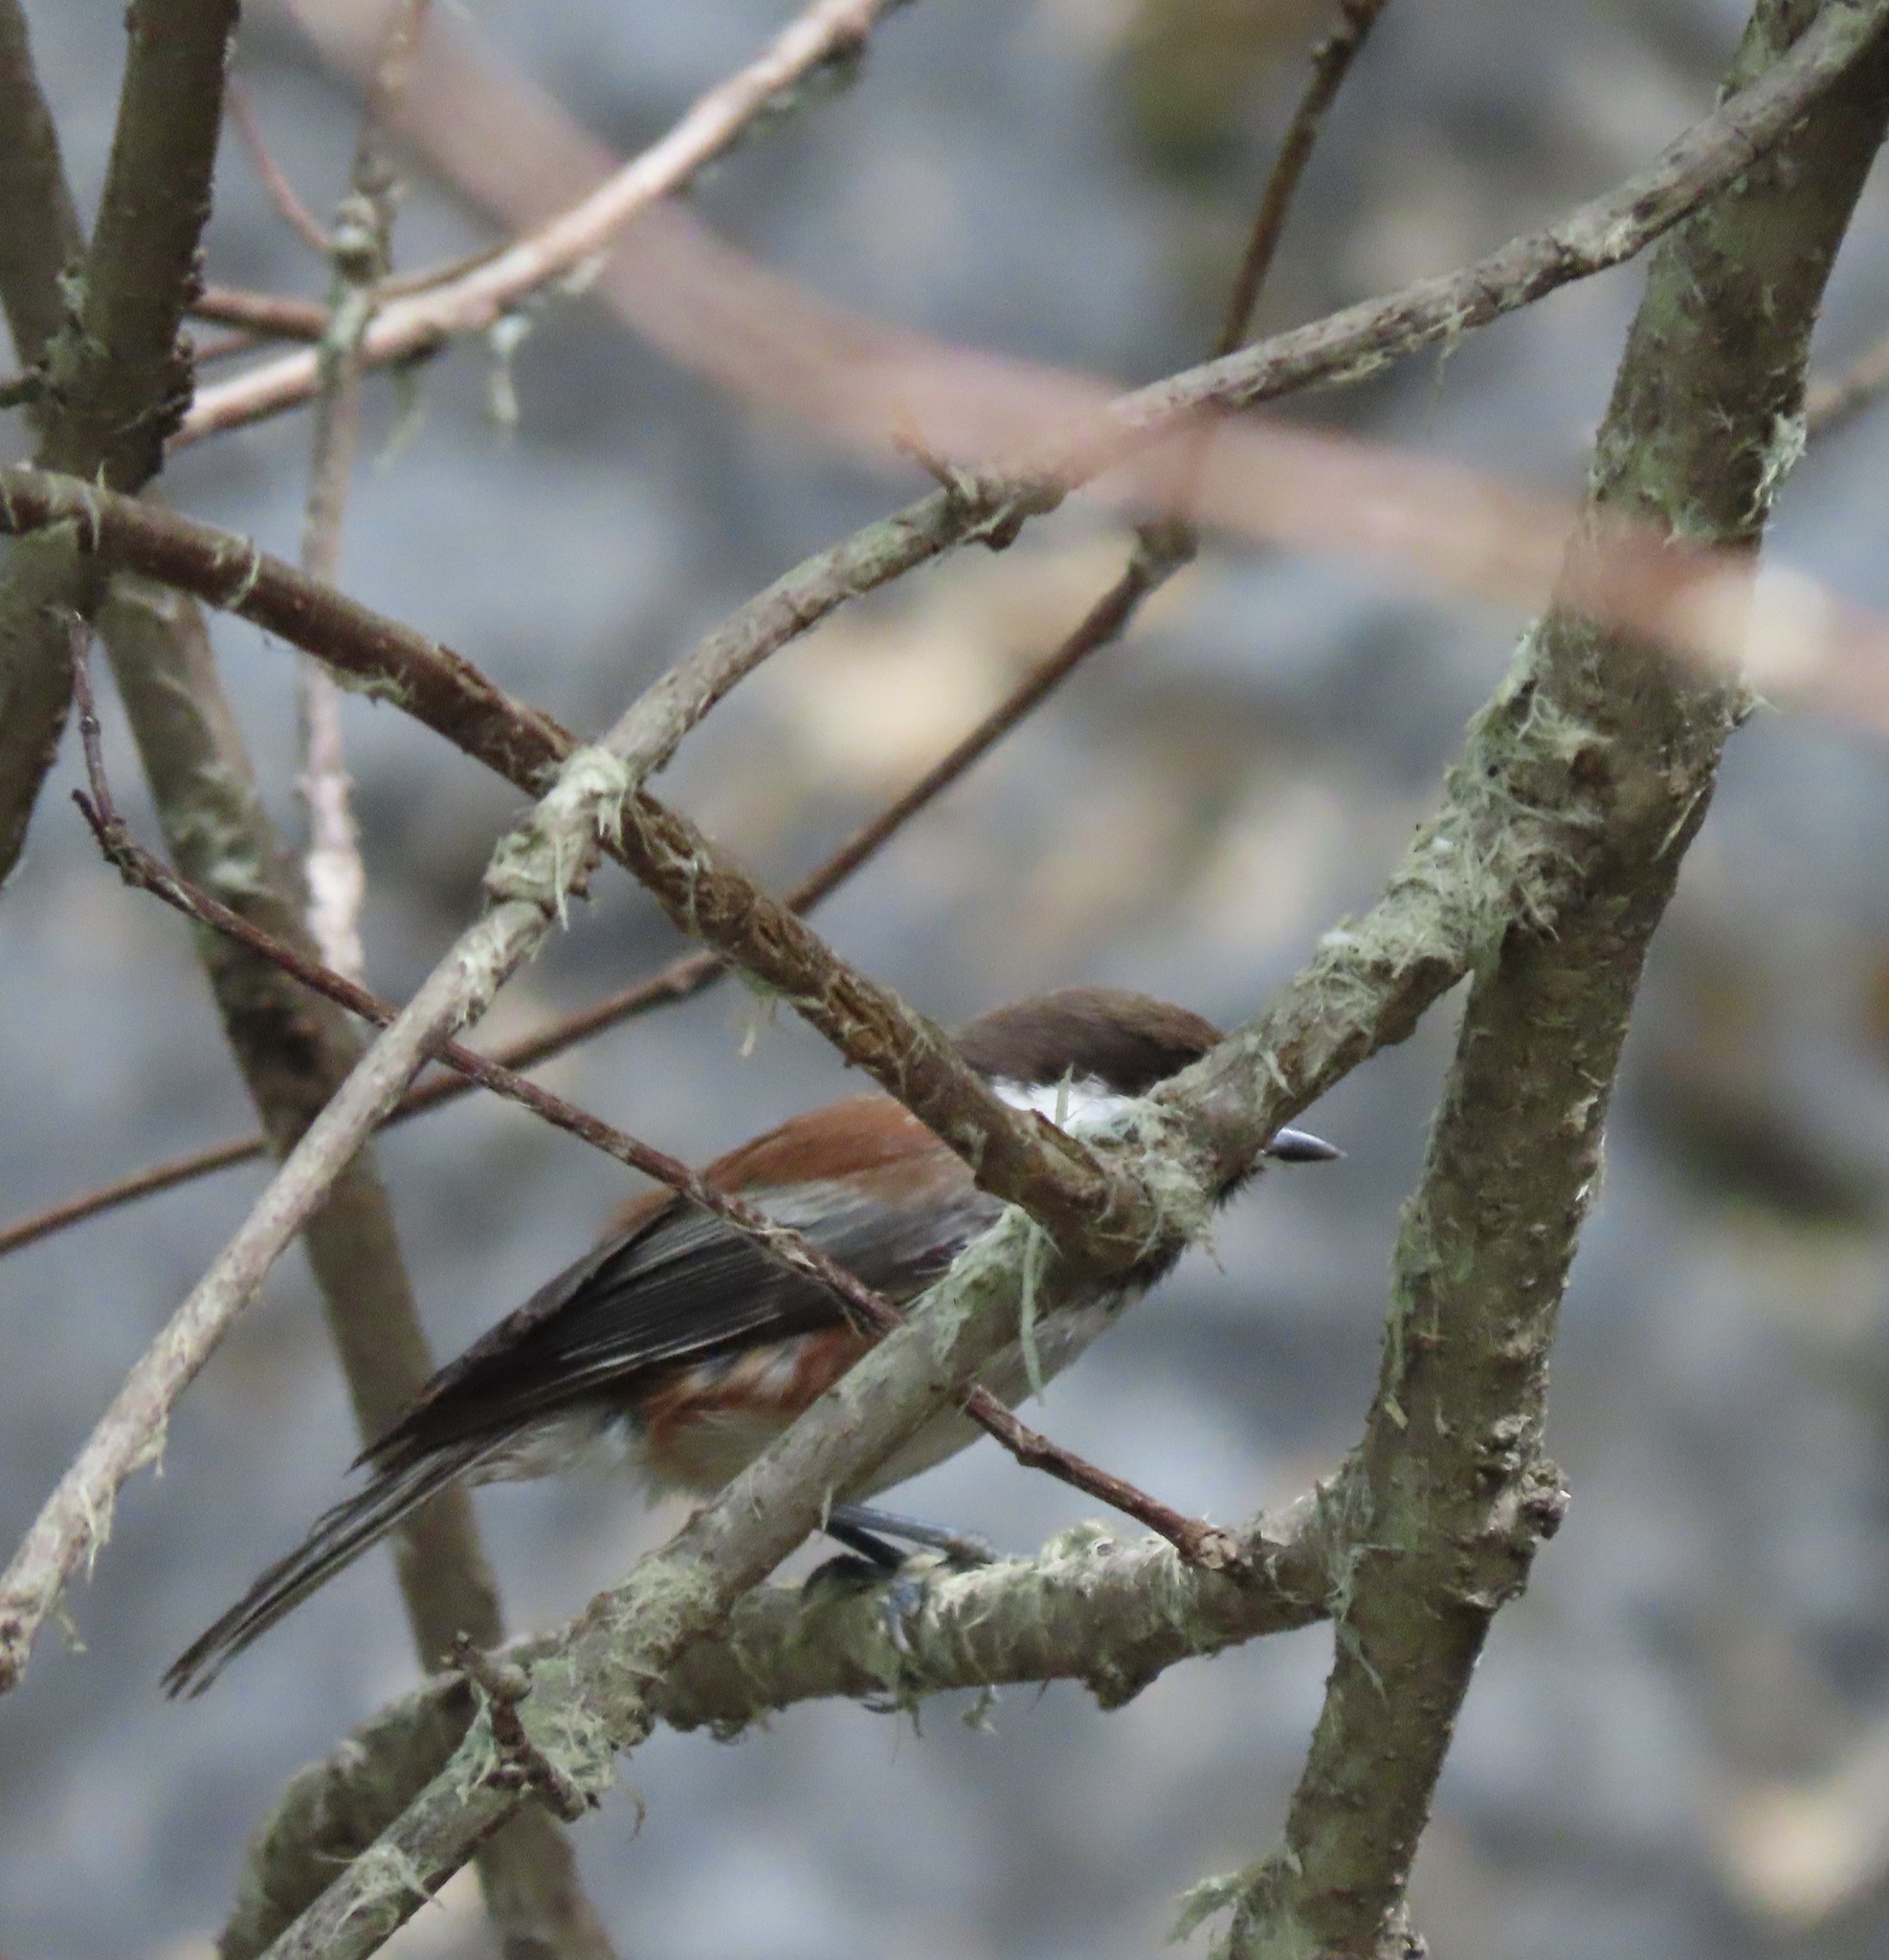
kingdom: Animalia
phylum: Chordata
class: Aves
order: Passeriformes
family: Paridae
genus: Poecile
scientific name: Poecile rufescens
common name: Chestnut-backed chickadee
